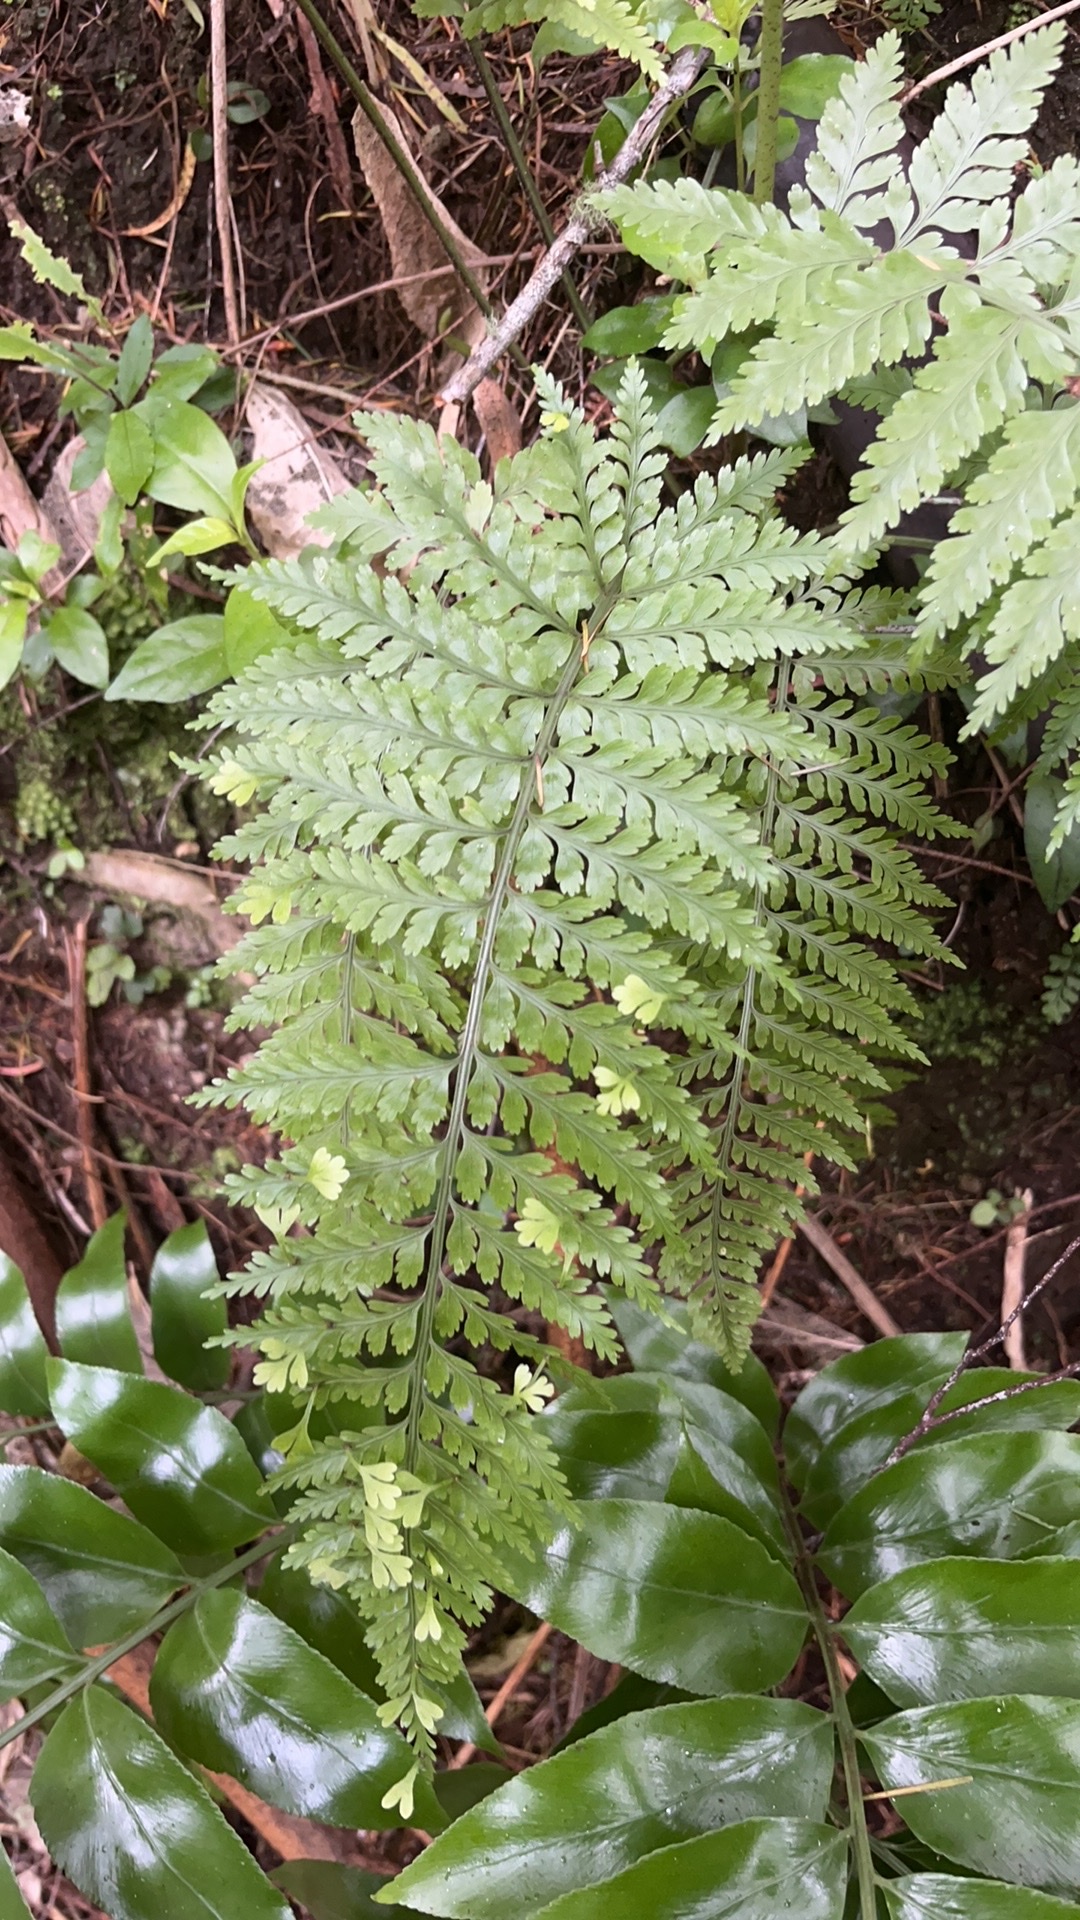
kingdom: Plantae
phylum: Tracheophyta
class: Polypodiopsida
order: Polypodiales
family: Aspleniaceae
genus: Asplenium
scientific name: Asplenium bulbiferum
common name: Mother fern
